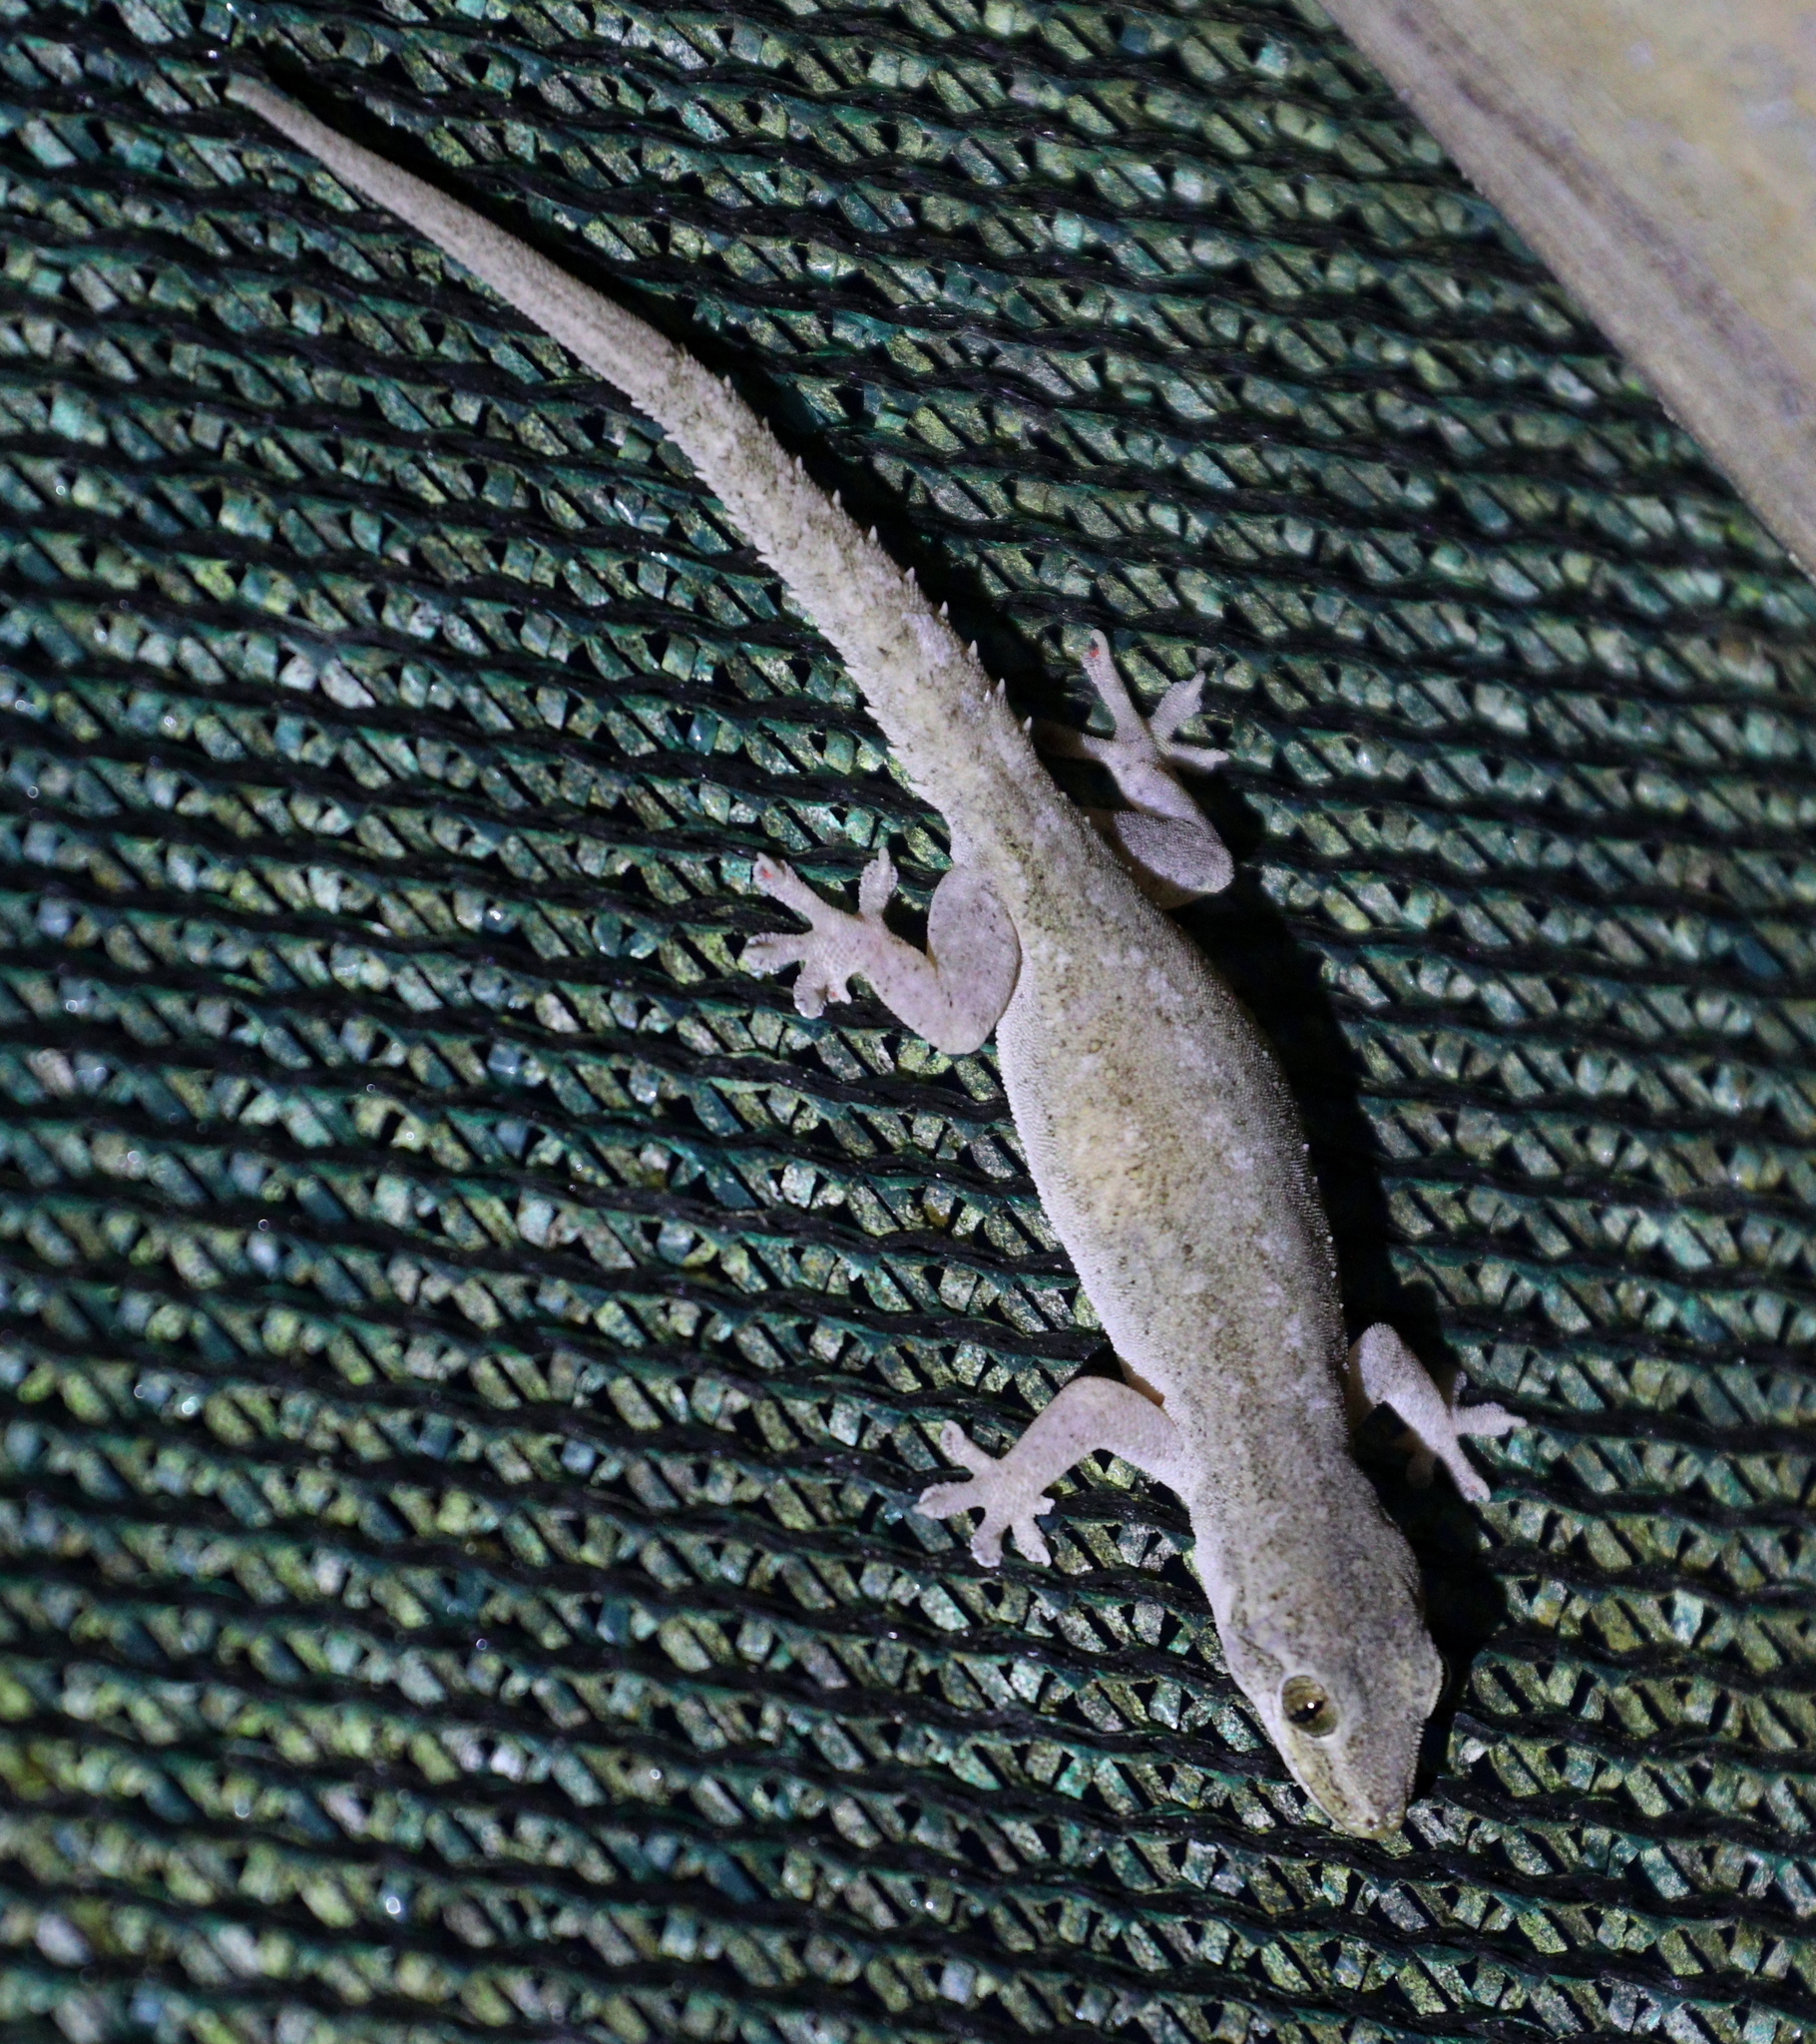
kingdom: Animalia
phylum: Chordata
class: Squamata
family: Gekkonidae
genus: Hemidactylus
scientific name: Hemidactylus frenatus
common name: Common house gecko
